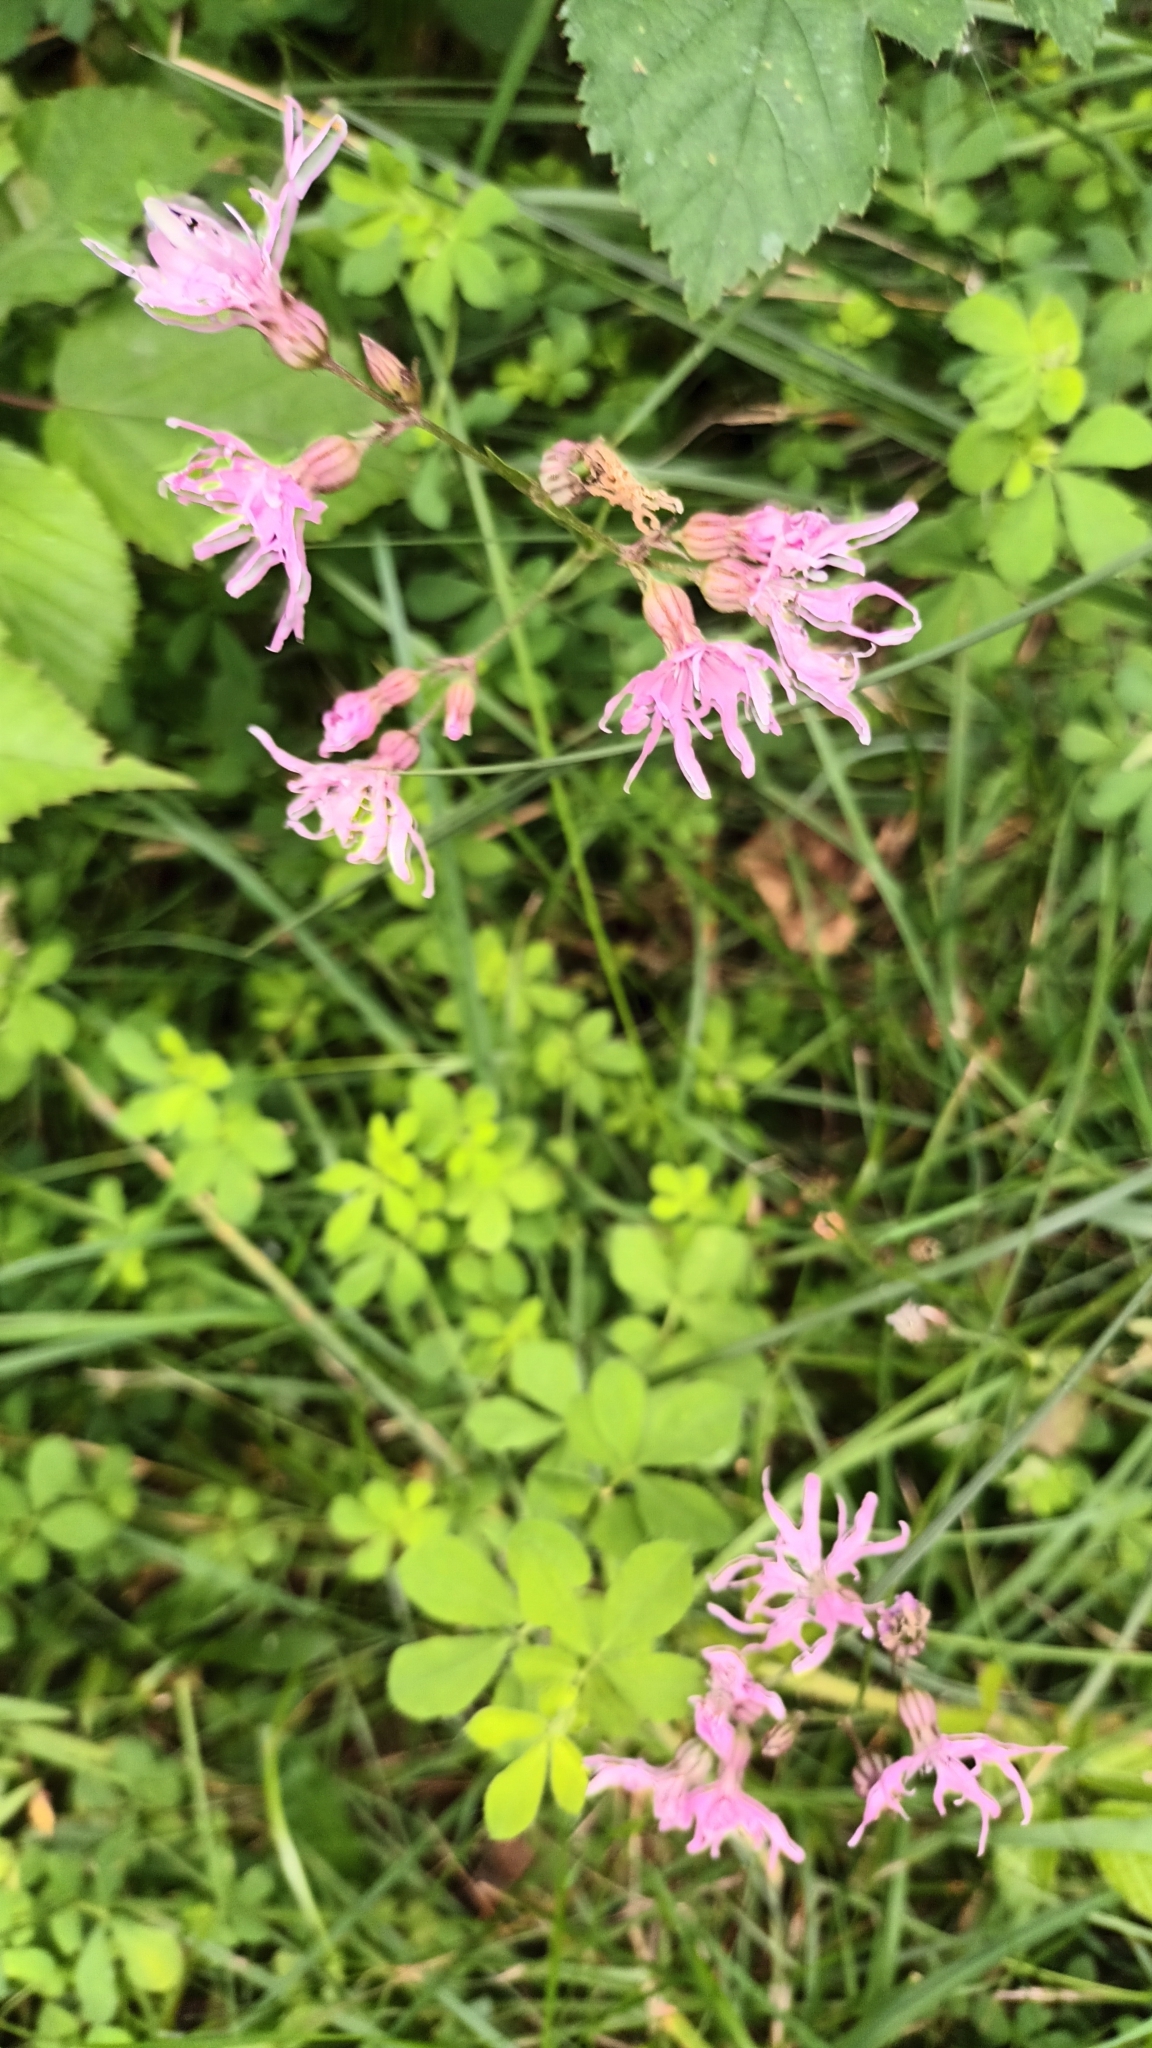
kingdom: Plantae
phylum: Tracheophyta
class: Magnoliopsida
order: Caryophyllales
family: Caryophyllaceae
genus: Silene
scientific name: Silene flos-cuculi
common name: Ragged-robin
